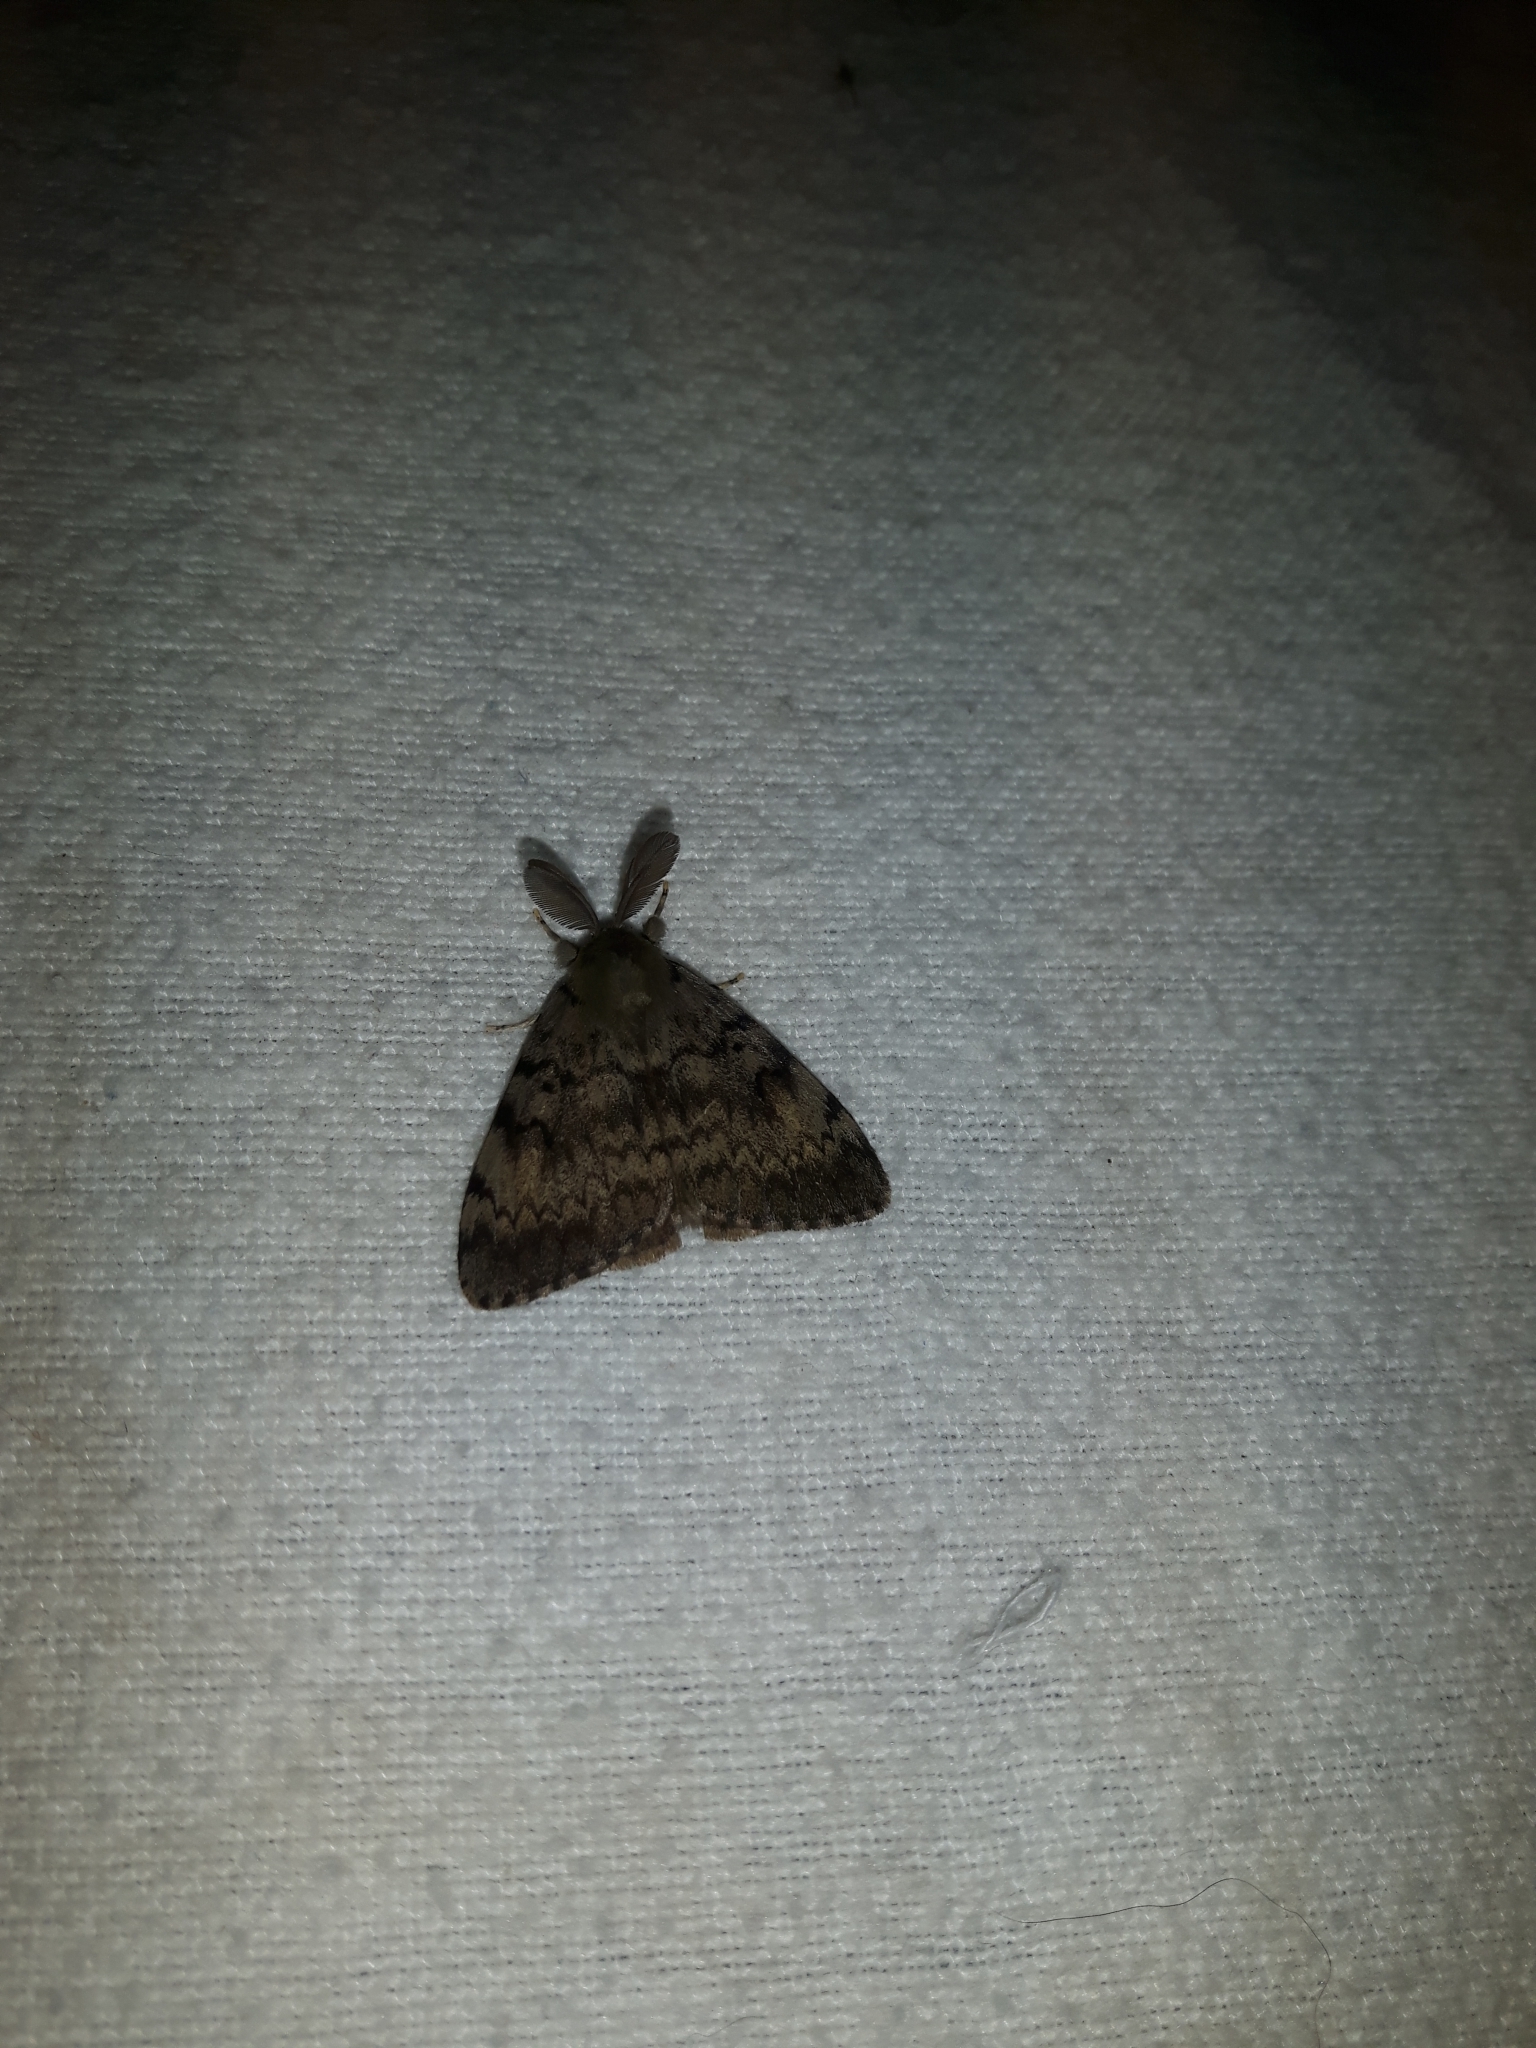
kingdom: Animalia
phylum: Arthropoda
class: Insecta
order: Lepidoptera
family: Erebidae
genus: Lymantria
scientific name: Lymantria dispar
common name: Gypsy moth
